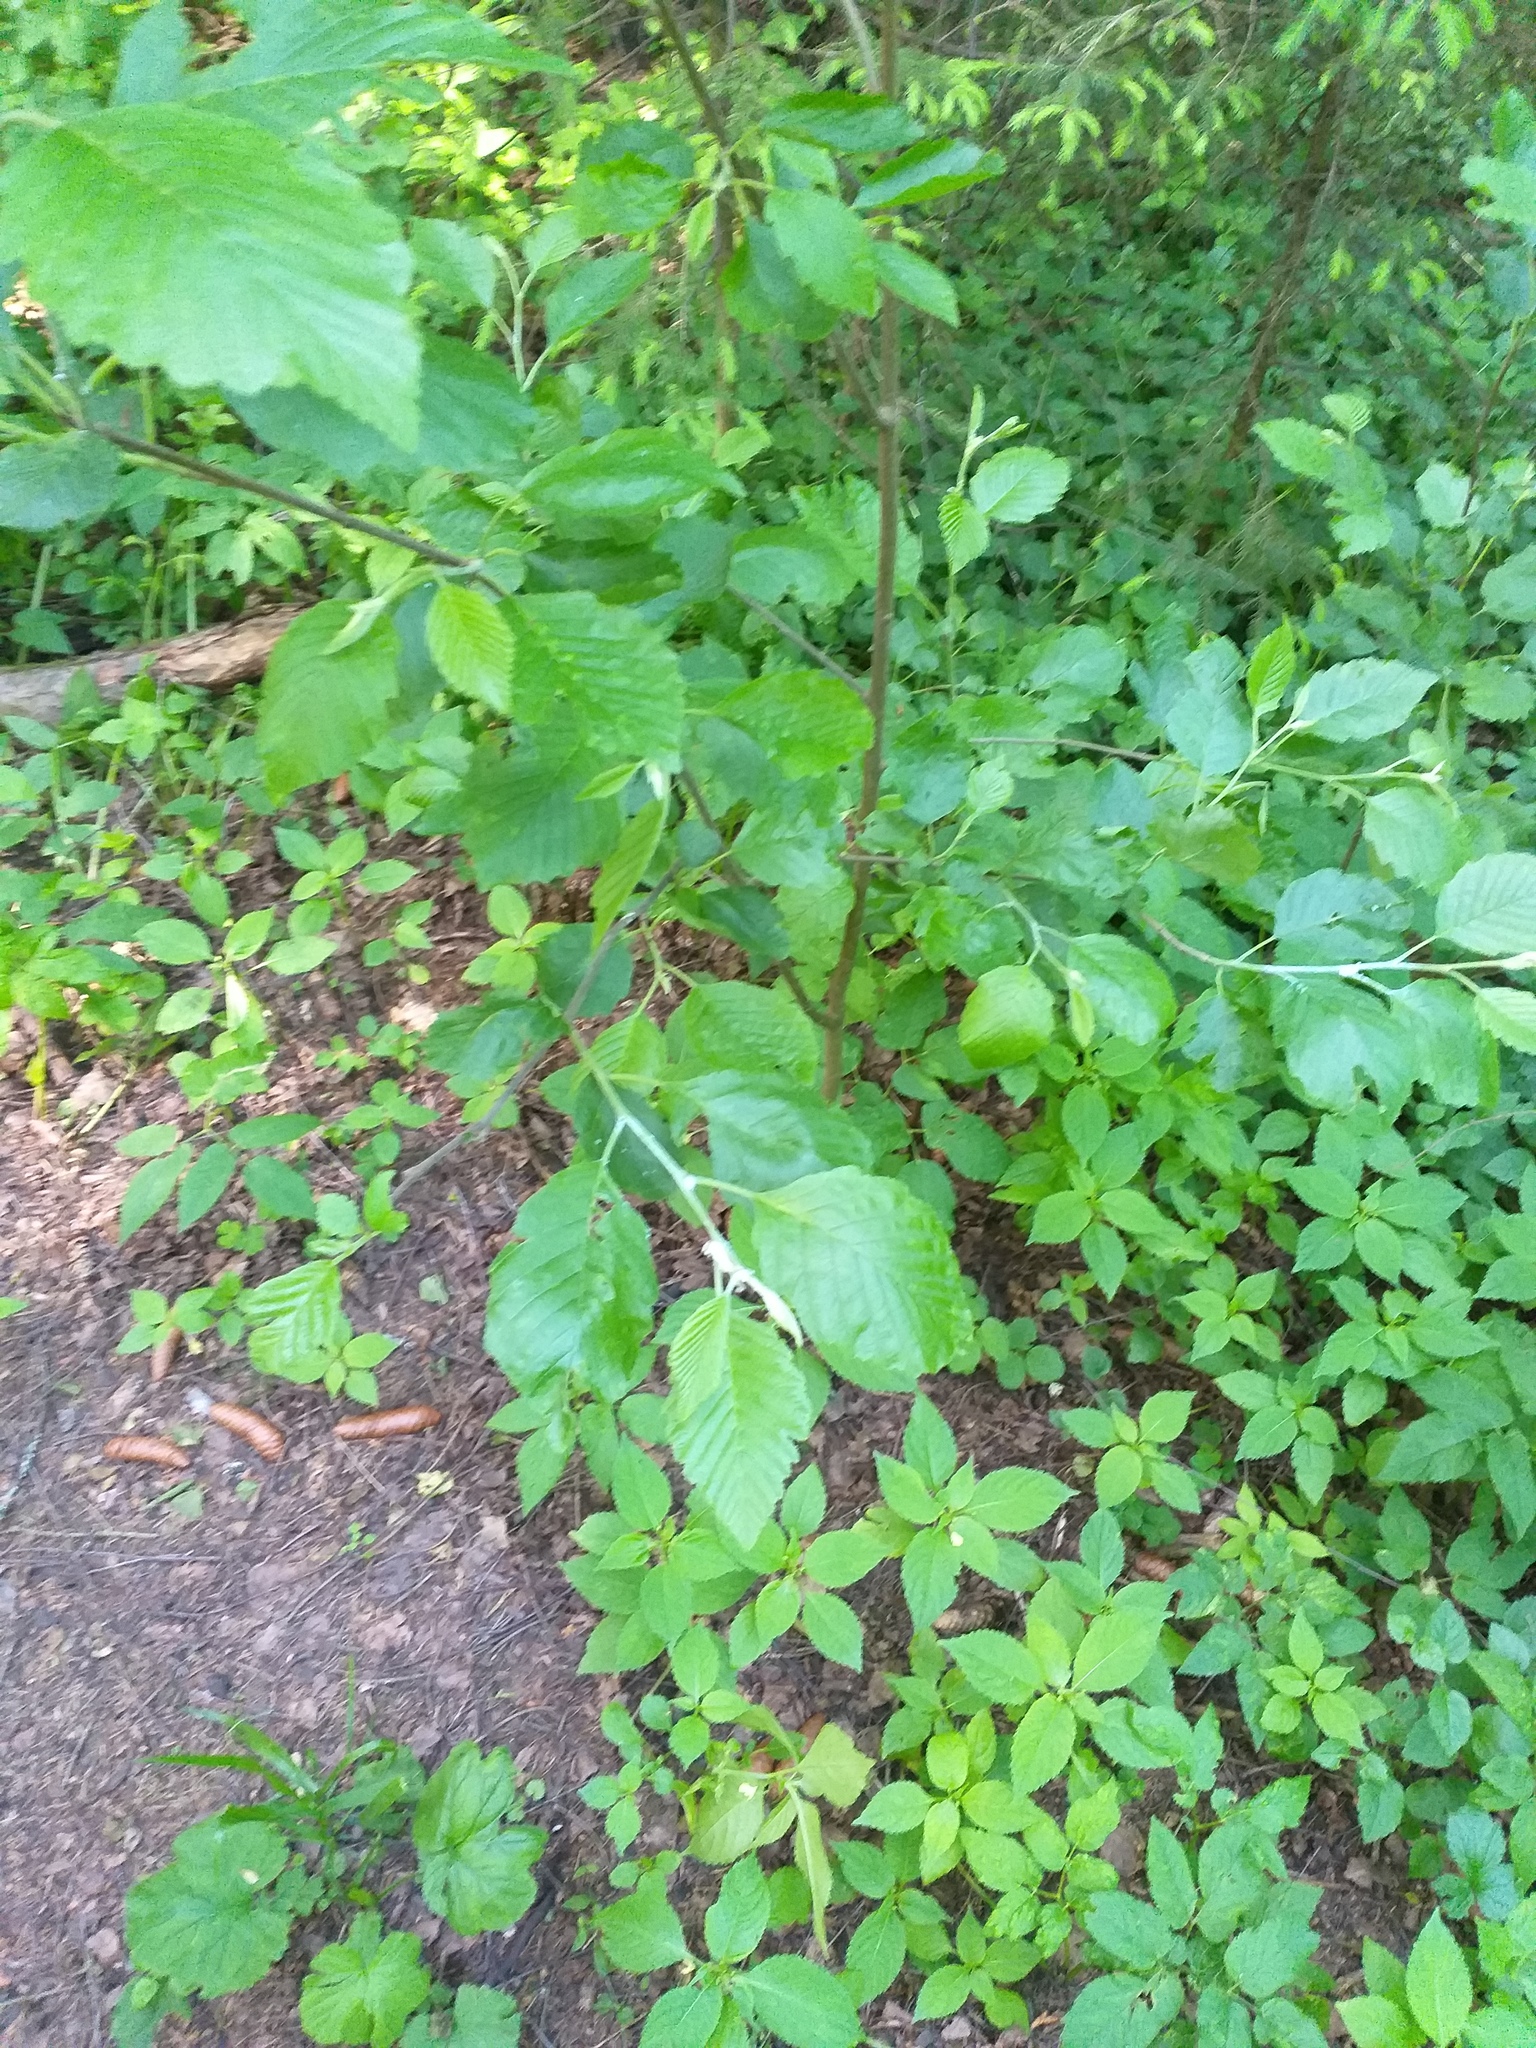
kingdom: Plantae
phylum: Tracheophyta
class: Magnoliopsida
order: Fagales
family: Betulaceae
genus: Alnus
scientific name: Alnus incana
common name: Grey alder
